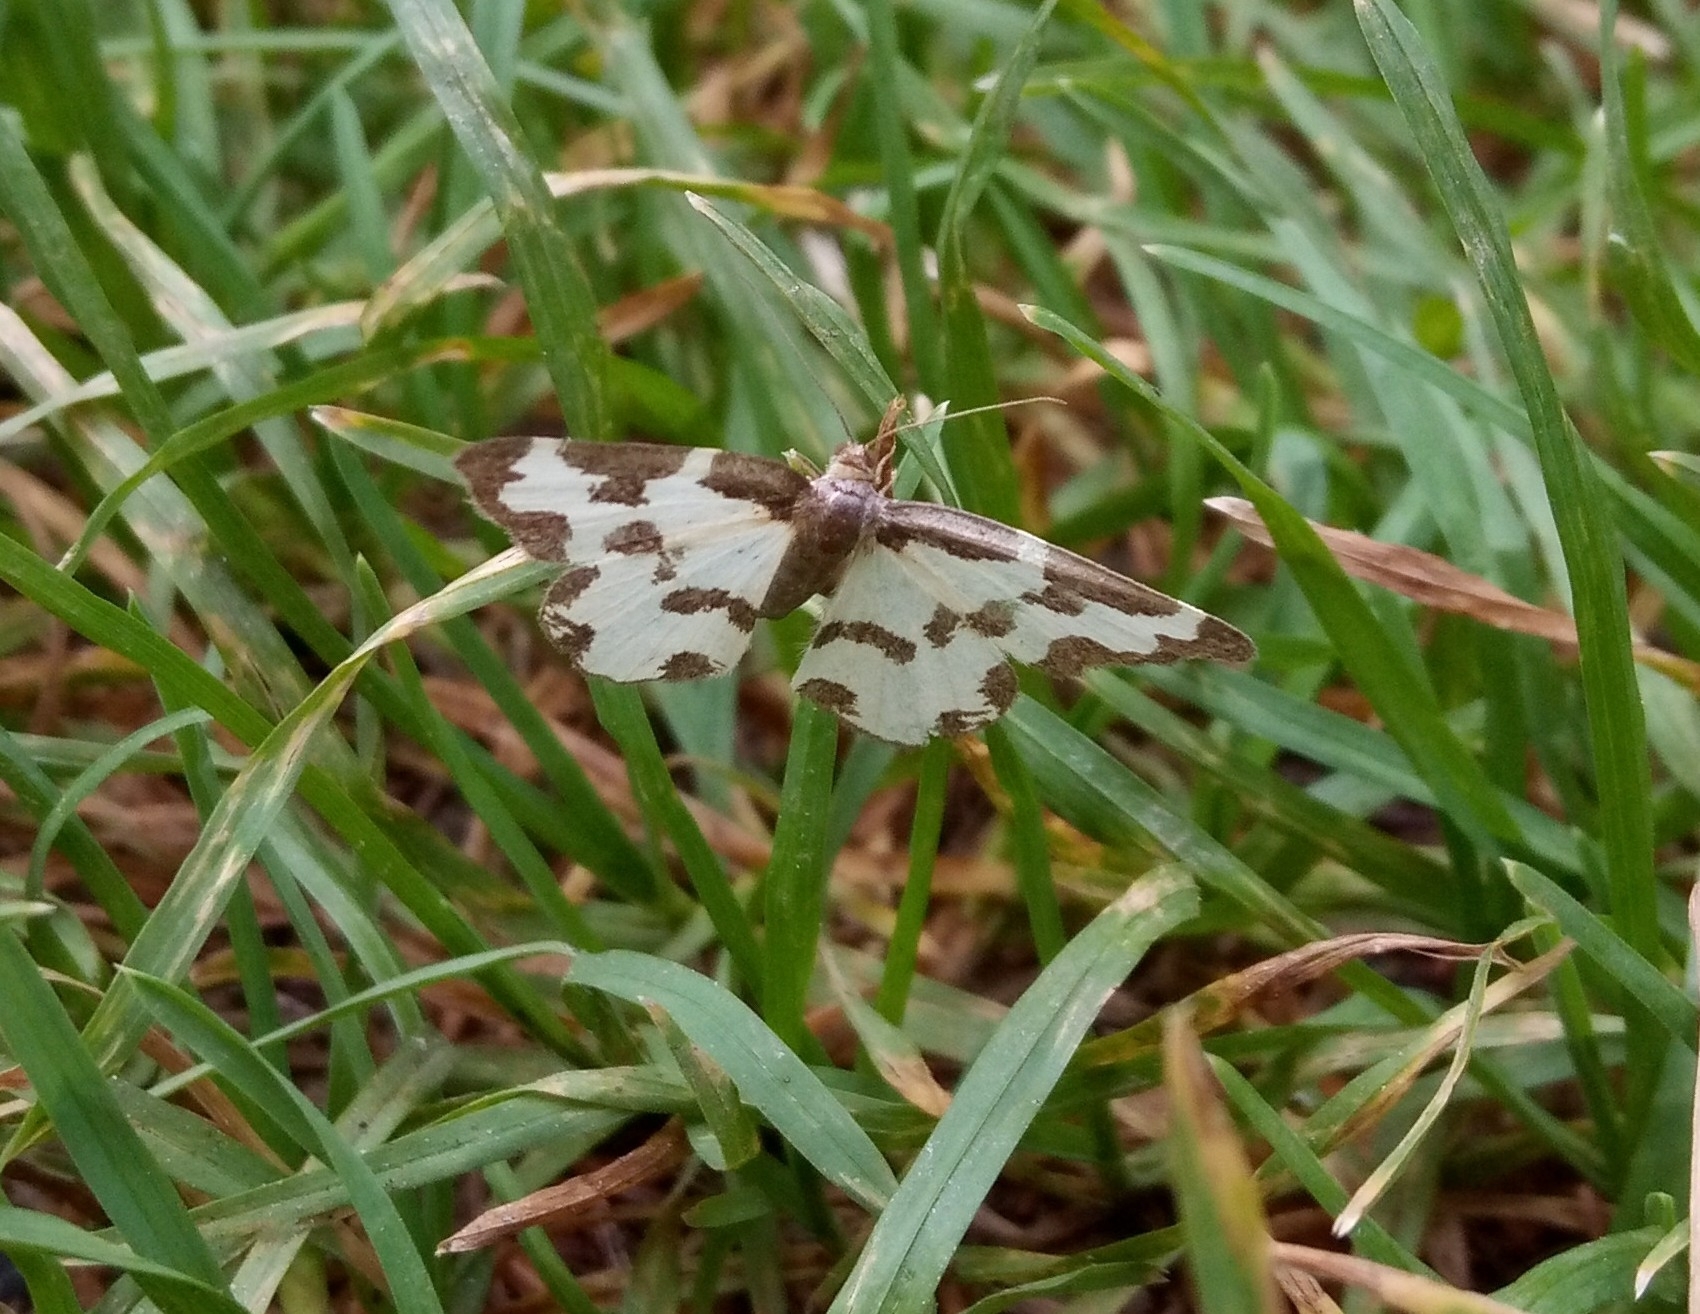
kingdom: Animalia
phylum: Arthropoda
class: Insecta
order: Lepidoptera
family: Geometridae
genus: Lomaspilis
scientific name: Lomaspilis marginata
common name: Clouded border
